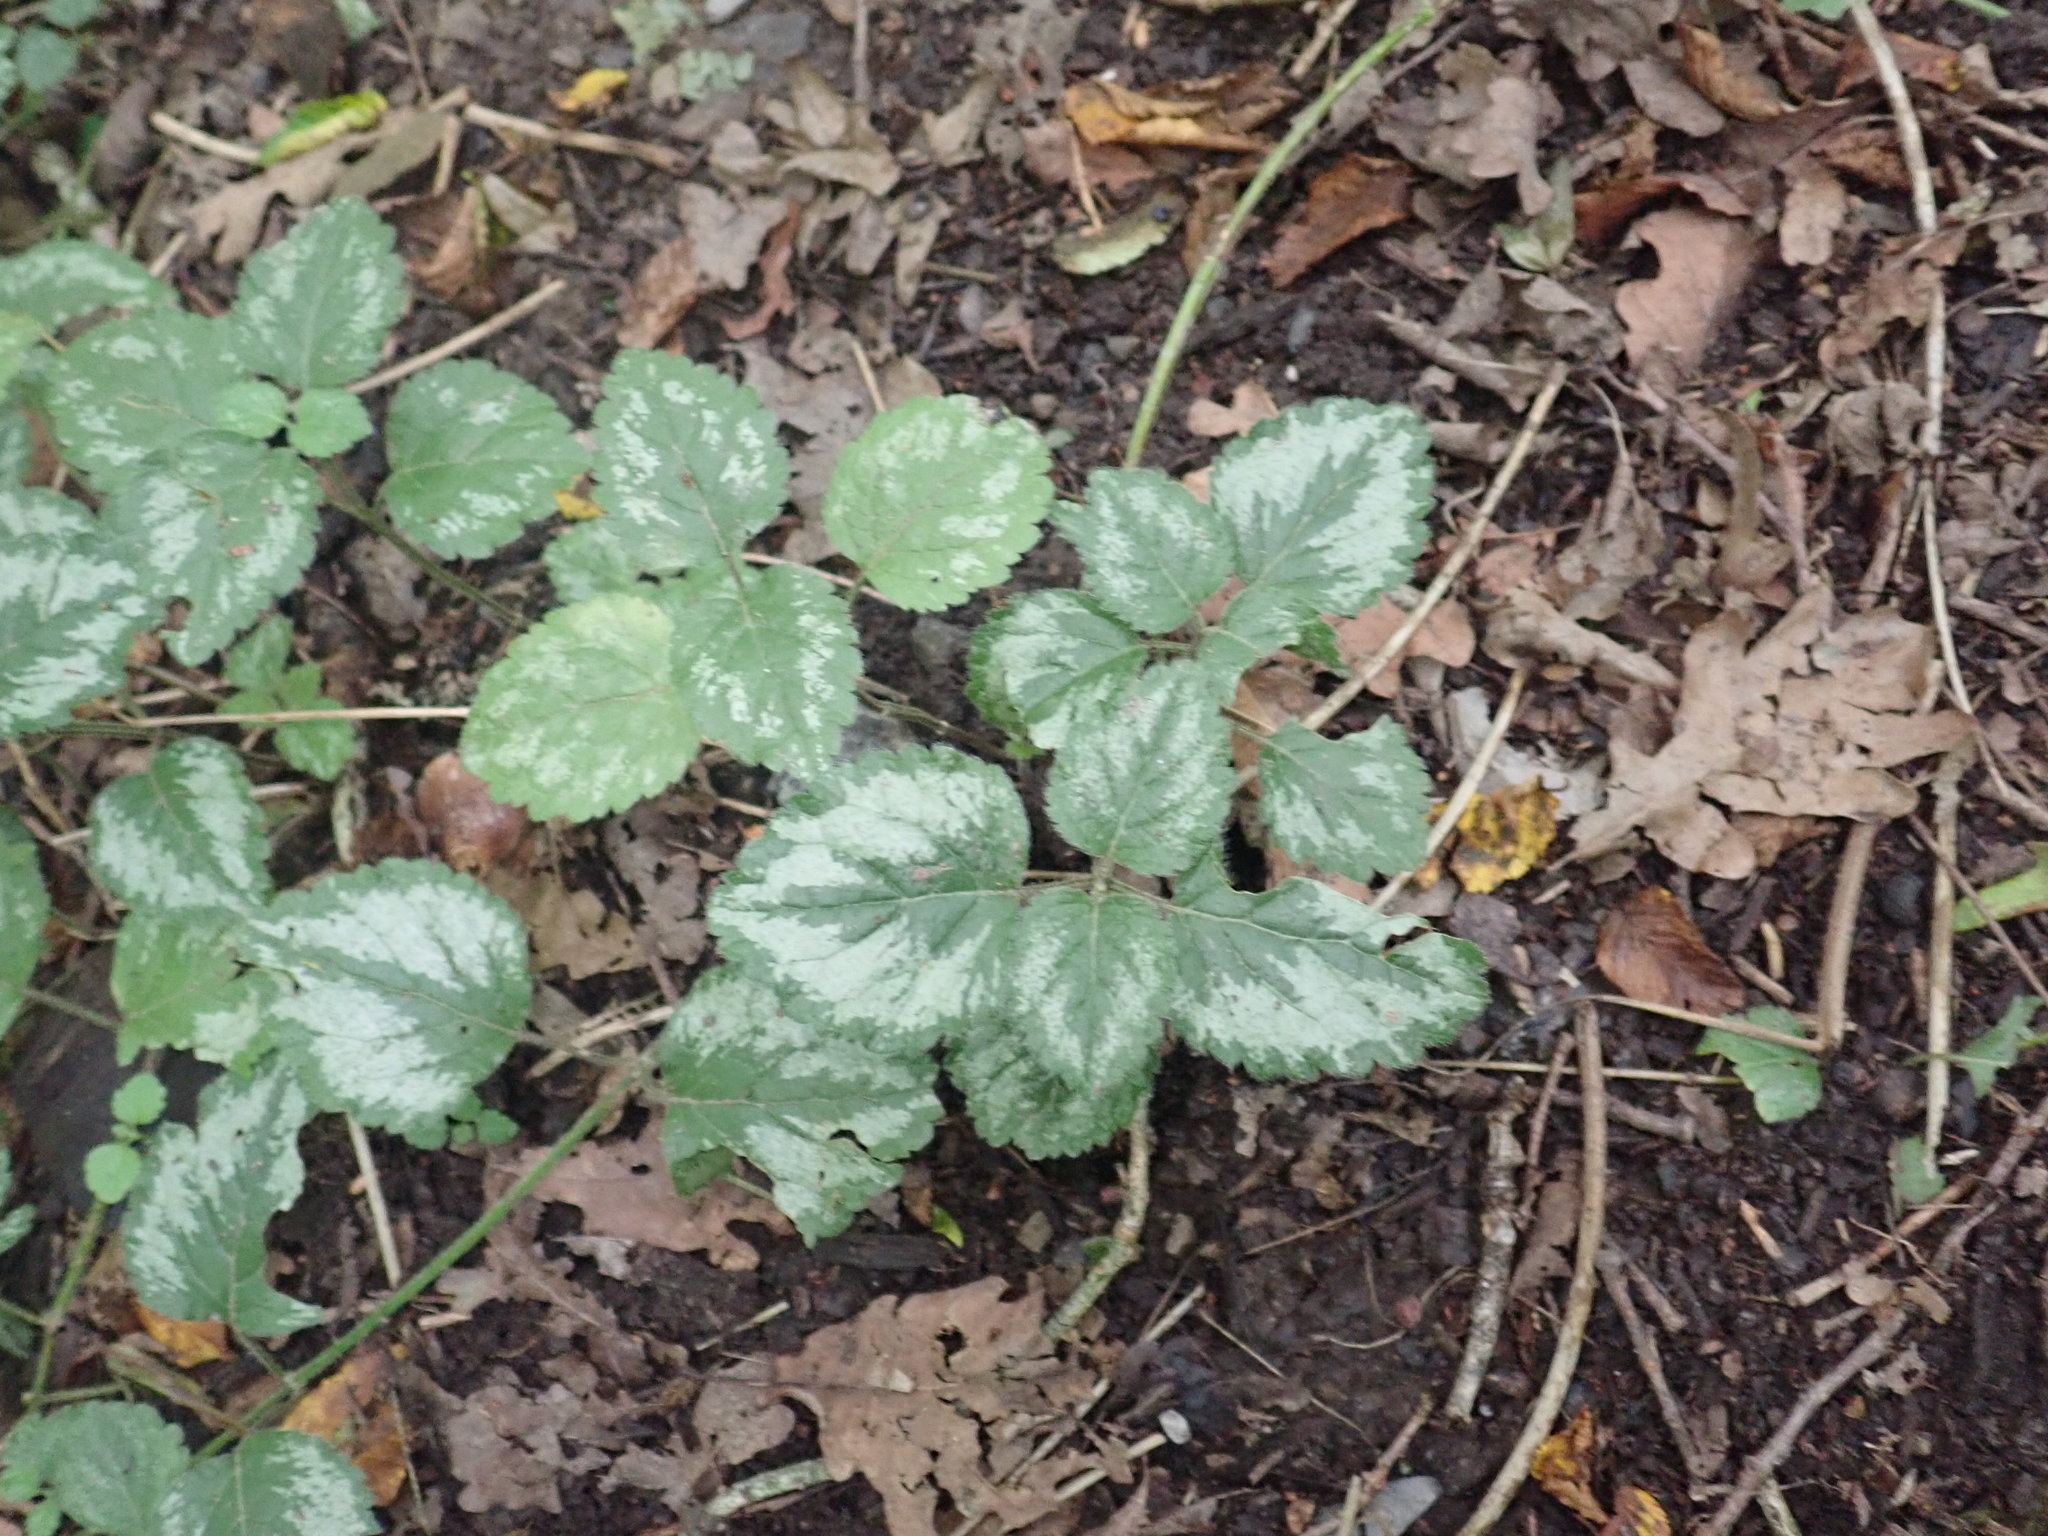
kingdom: Plantae
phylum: Tracheophyta
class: Magnoliopsida
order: Lamiales
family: Lamiaceae
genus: Lamium
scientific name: Lamium galeobdolon
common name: Yellow archangel
